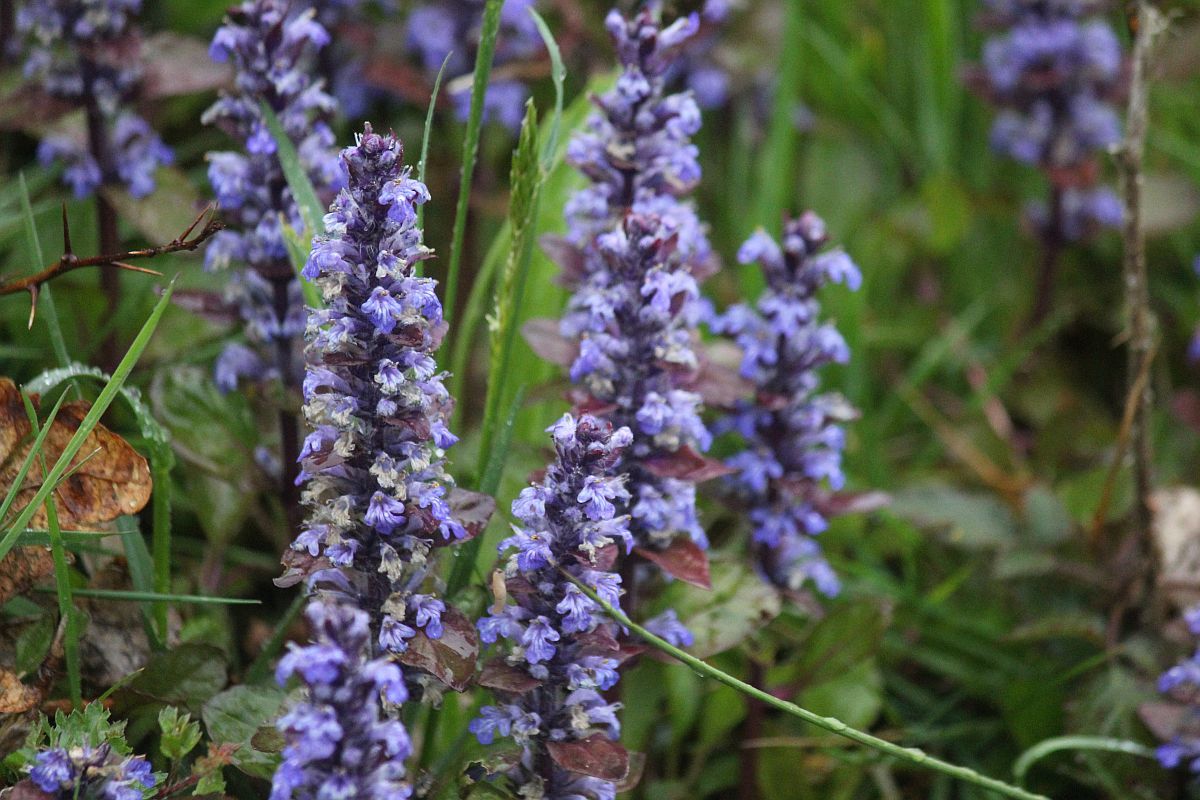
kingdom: Plantae
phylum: Tracheophyta
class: Magnoliopsida
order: Lamiales
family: Lamiaceae
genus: Ajuga
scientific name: Ajuga reptans
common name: Bugle
